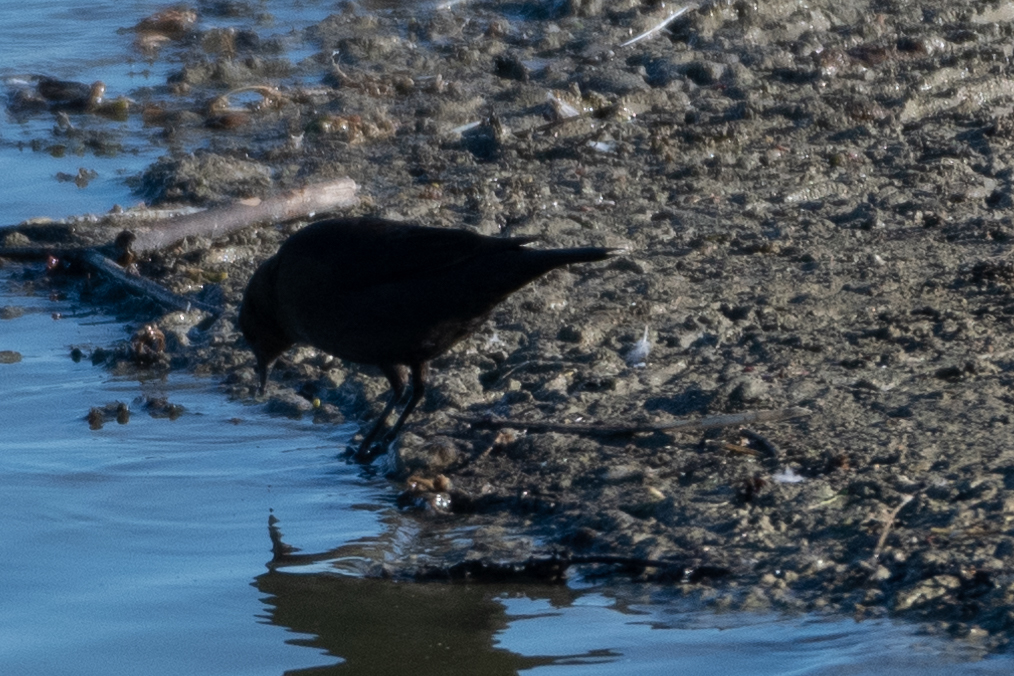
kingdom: Animalia
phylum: Chordata
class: Aves
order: Passeriformes
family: Icteridae
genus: Euphagus
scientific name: Euphagus cyanocephalus
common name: Brewer's blackbird
